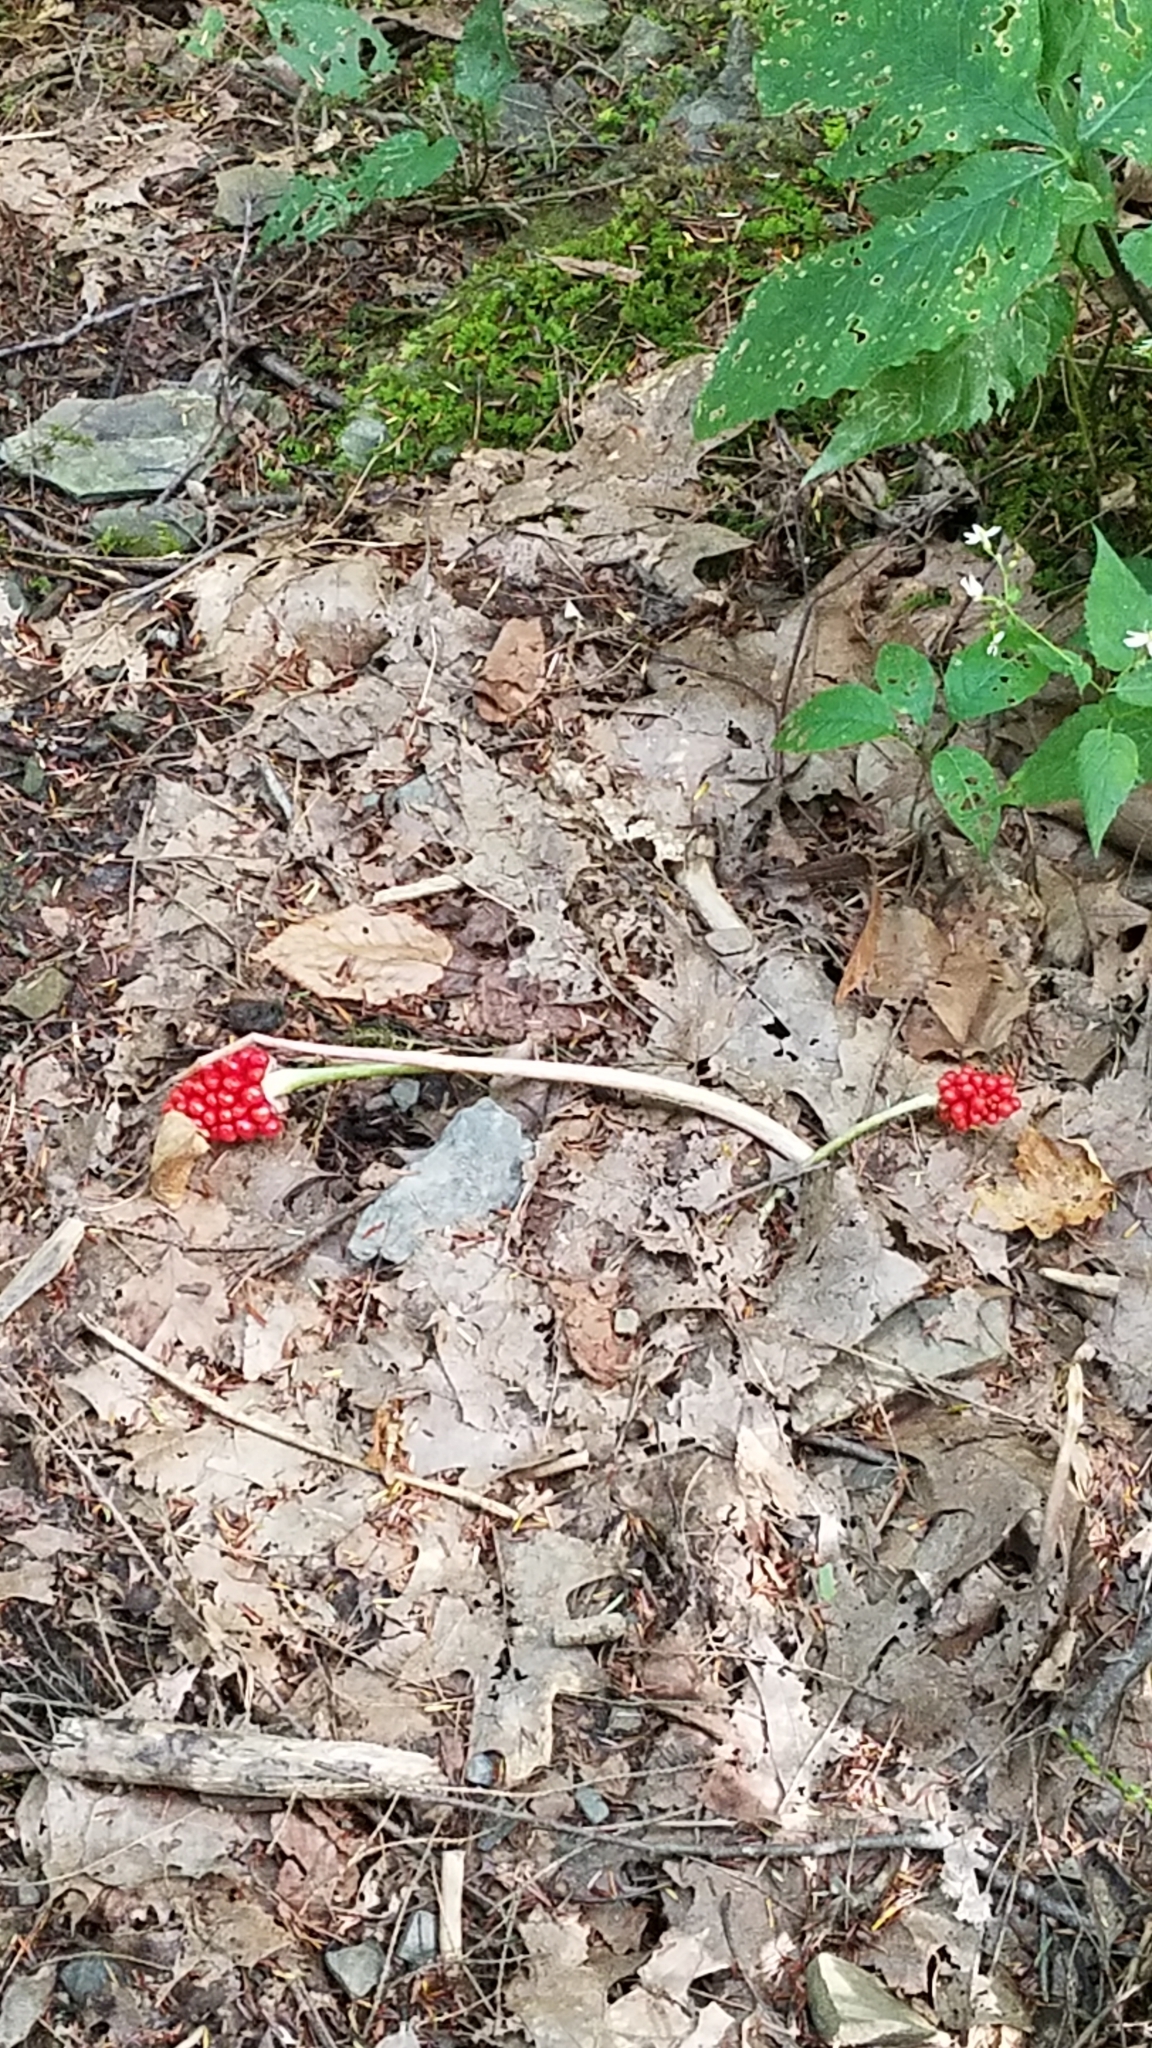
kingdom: Plantae
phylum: Tracheophyta
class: Liliopsida
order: Alismatales
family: Araceae
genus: Arisaema
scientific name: Arisaema triphyllum
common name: Jack-in-the-pulpit
